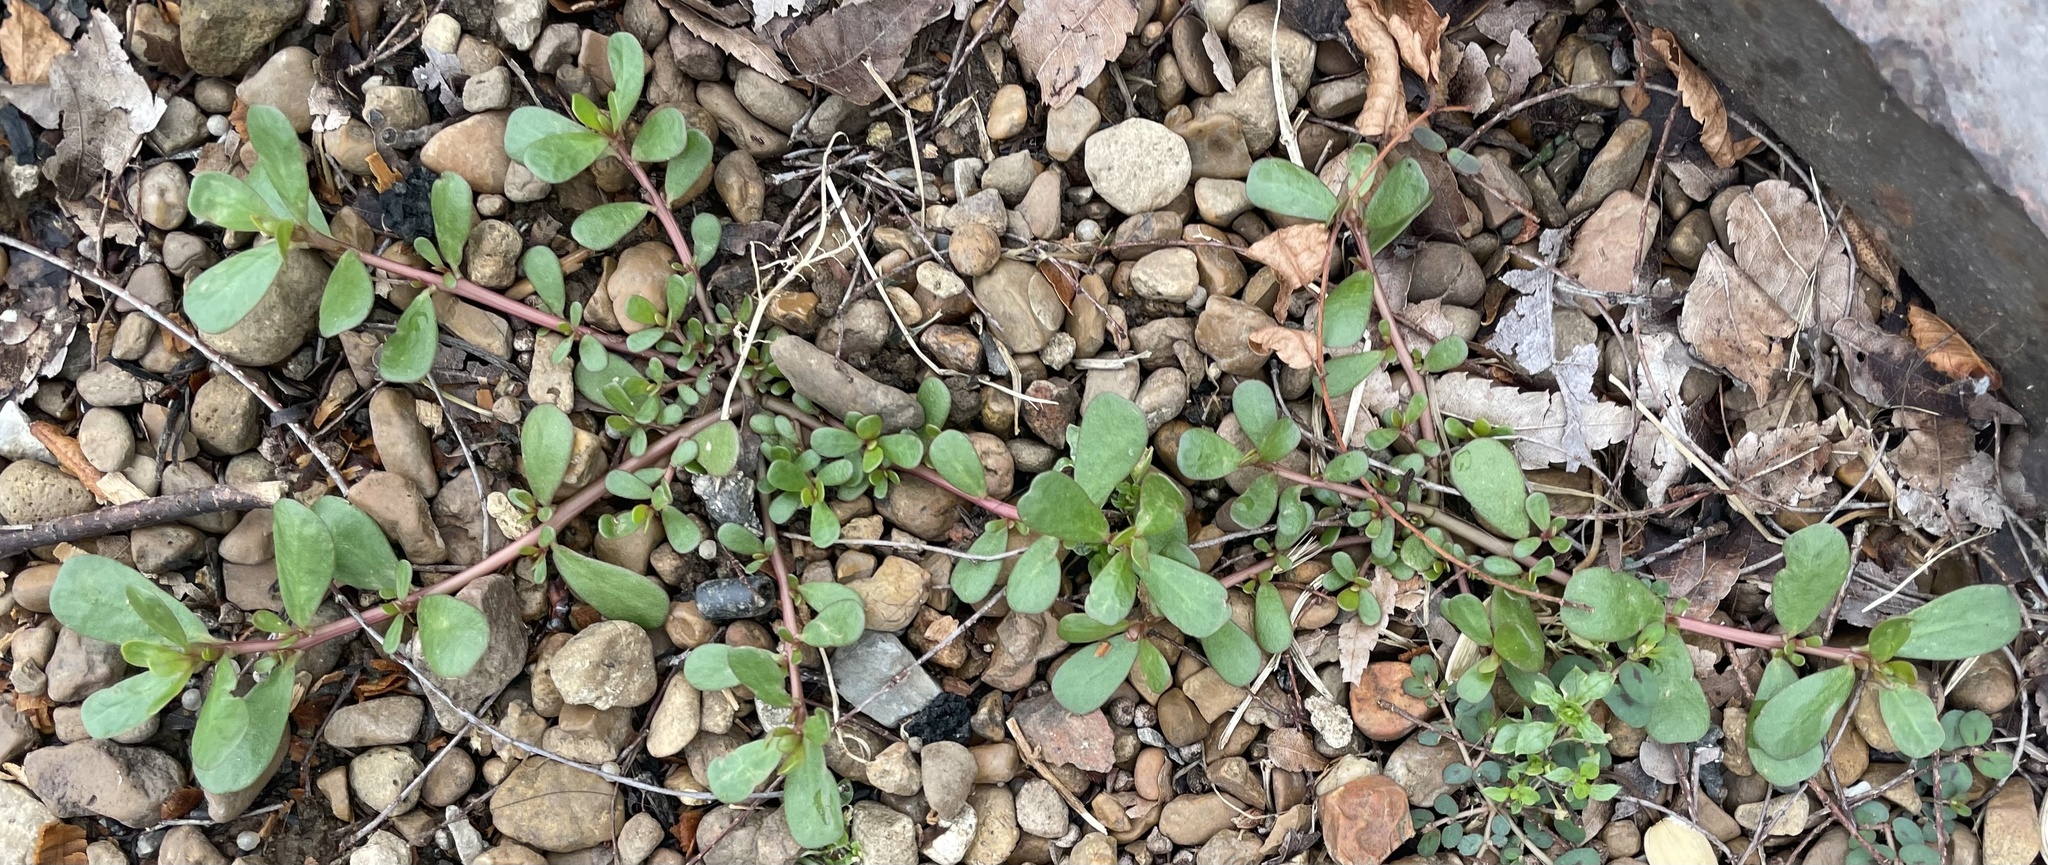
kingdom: Plantae
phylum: Tracheophyta
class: Magnoliopsida
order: Caryophyllales
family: Portulacaceae
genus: Portulaca
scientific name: Portulaca oleracea
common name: Common purslane
